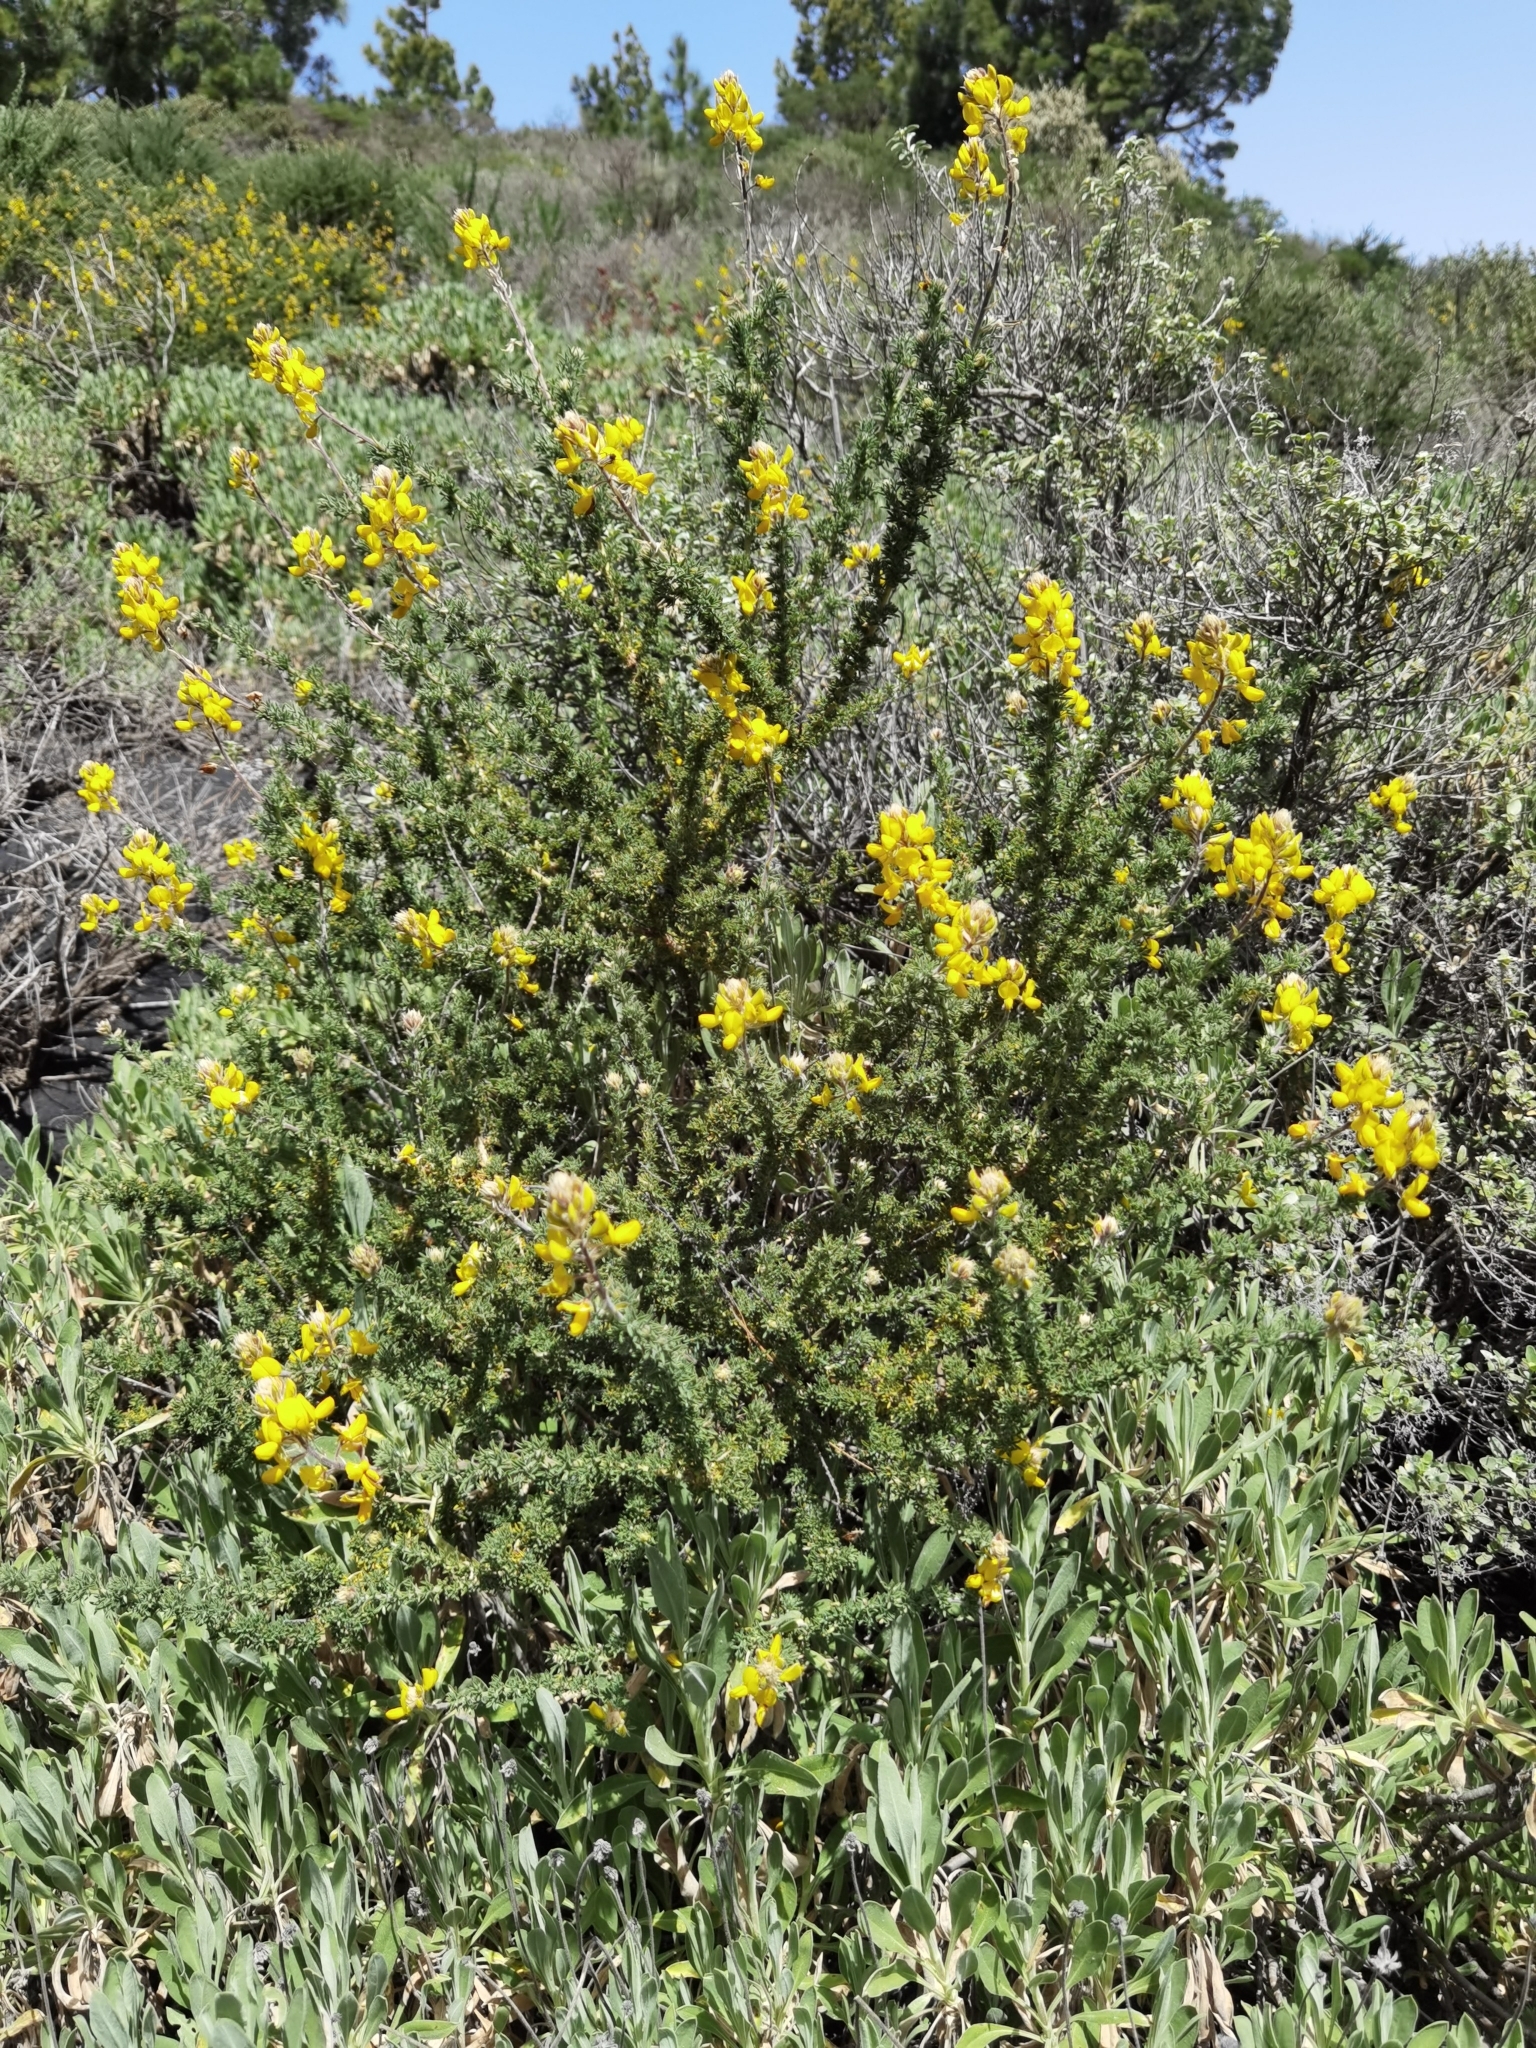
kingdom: Plantae
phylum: Tracheophyta
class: Magnoliopsida
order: Fabales
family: Fabaceae
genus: Adenocarpus
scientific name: Adenocarpus foliolosus
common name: Canary island flatpod
